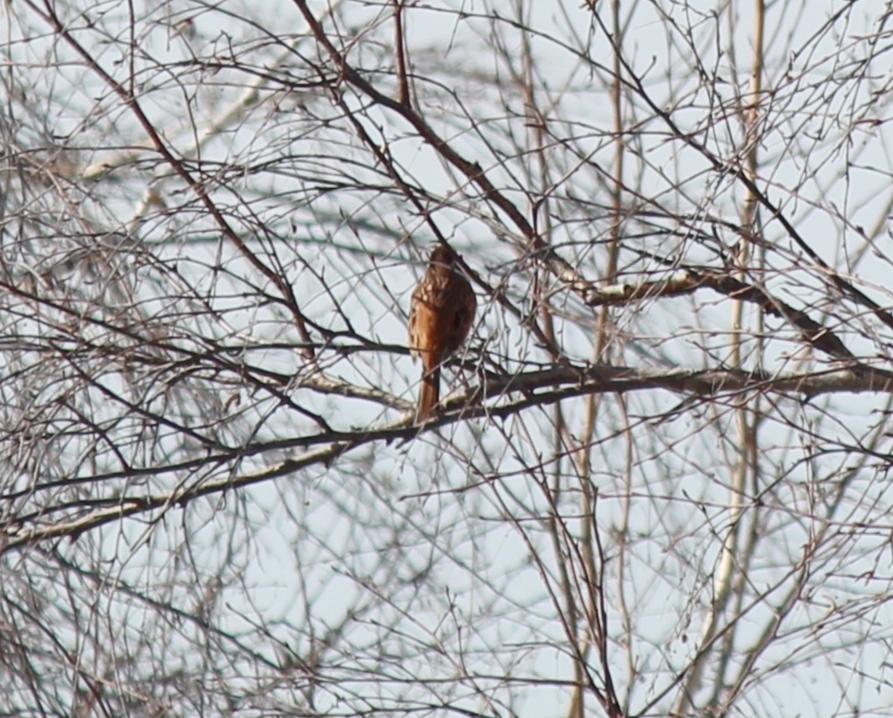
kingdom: Animalia
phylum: Chordata
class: Aves
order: Passeriformes
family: Emberizidae
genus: Emberiza
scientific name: Emberiza cioides
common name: Meadow bunting
